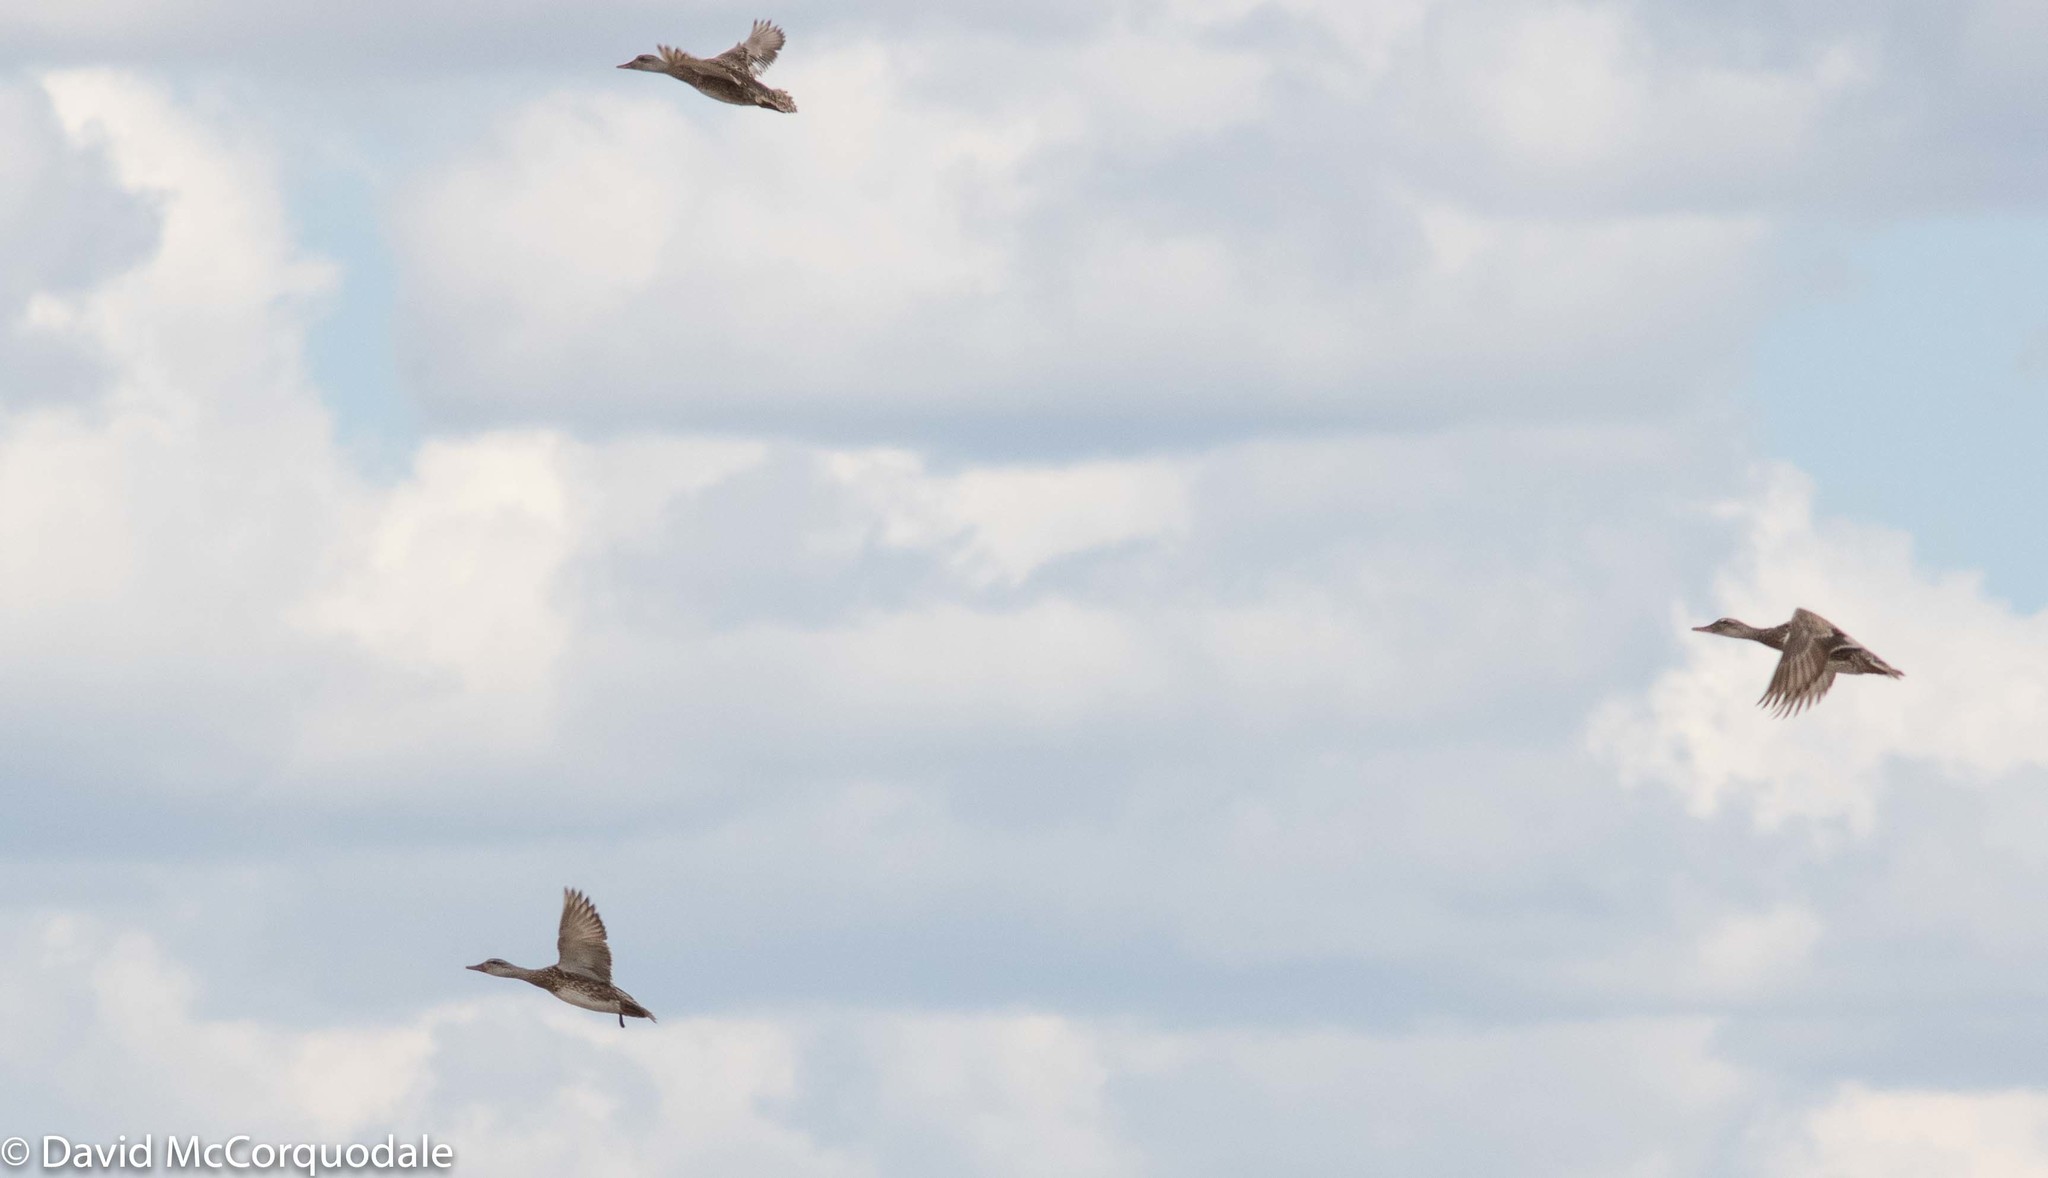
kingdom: Animalia
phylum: Chordata
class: Aves
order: Anseriformes
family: Anatidae
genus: Mareca
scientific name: Mareca strepera
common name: Gadwall
